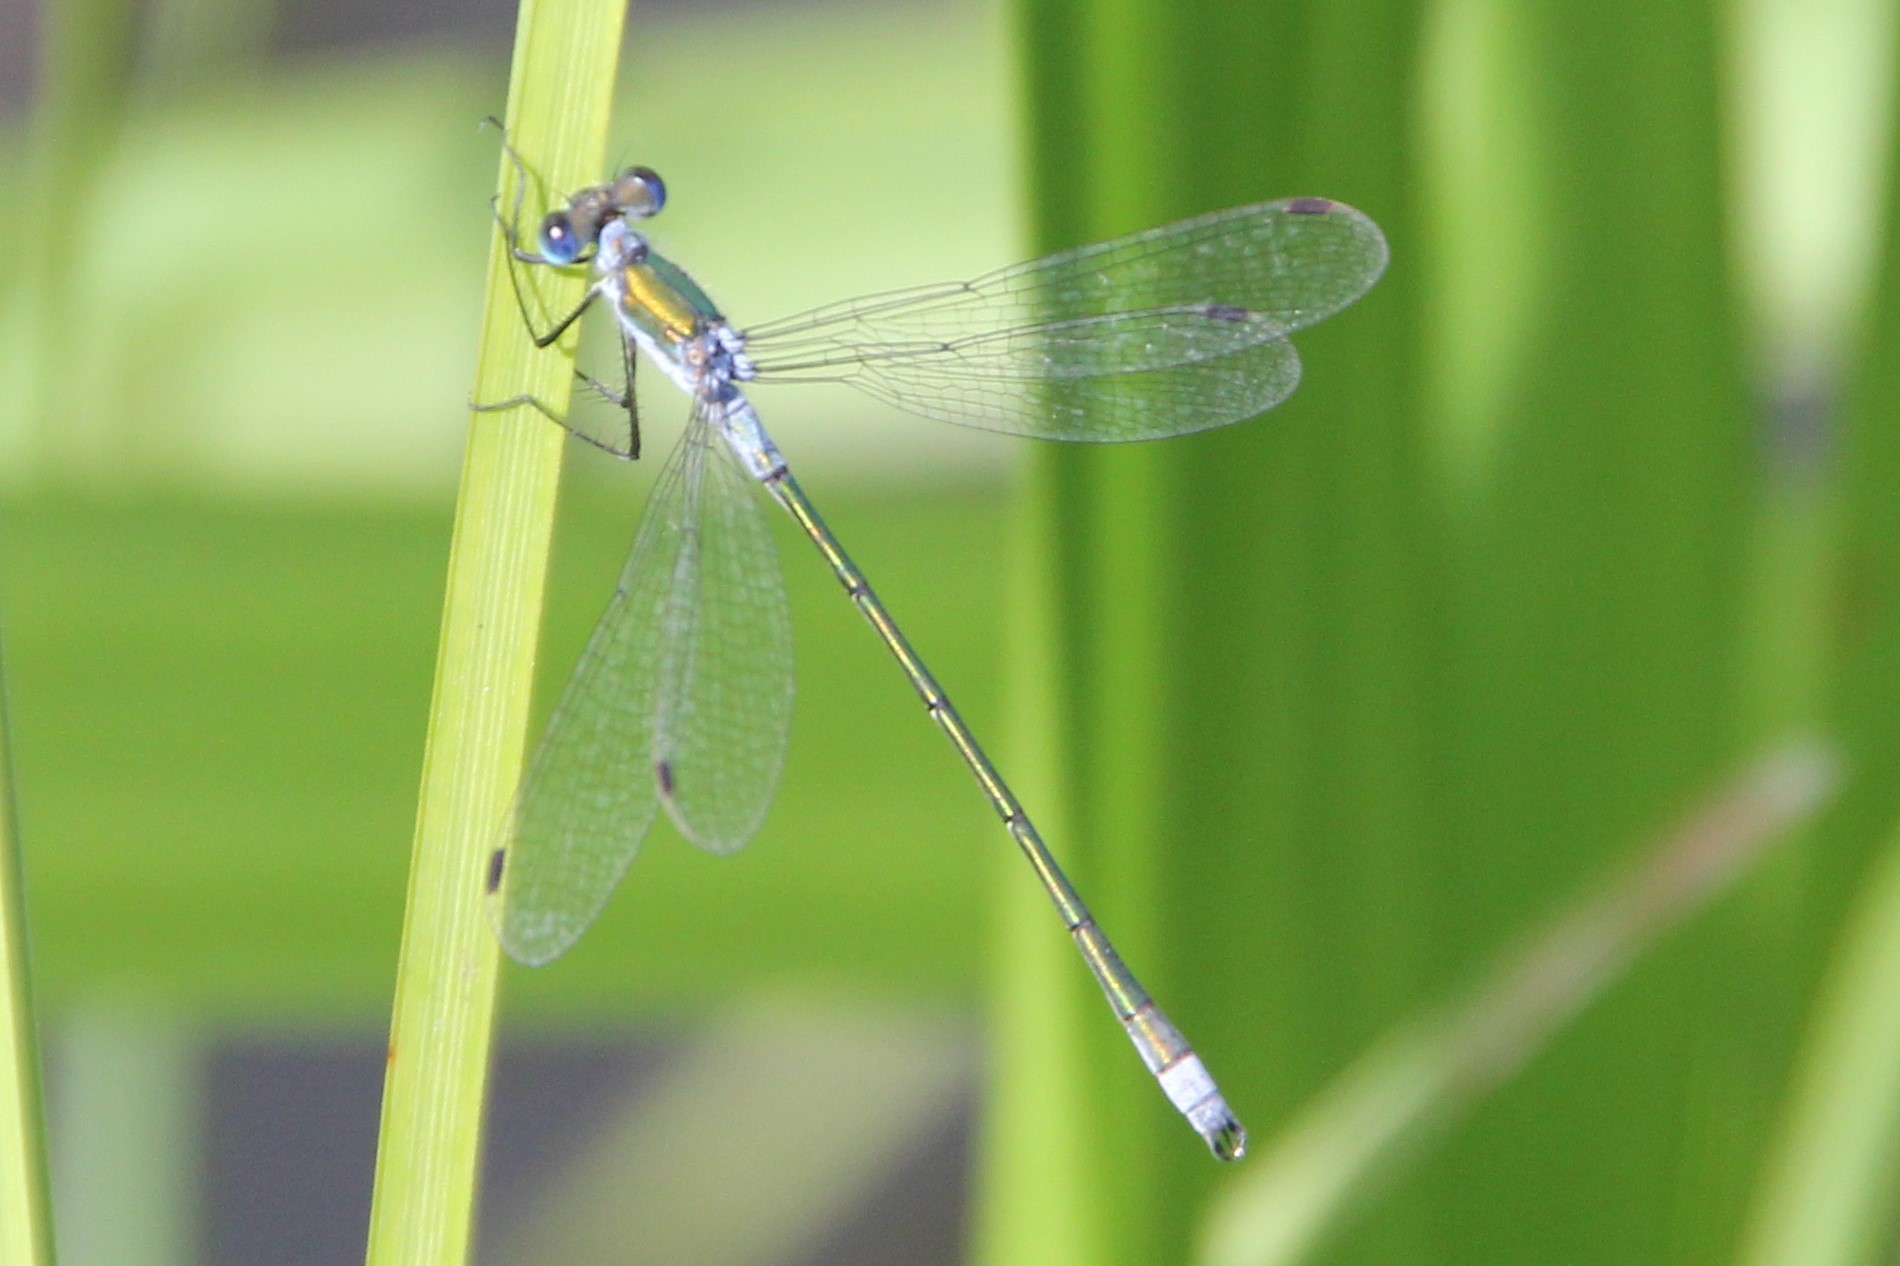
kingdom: Animalia
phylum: Arthropoda
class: Insecta
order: Odonata
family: Lestidae
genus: Lestes
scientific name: Lestes sponsa
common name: Common spreadwing
